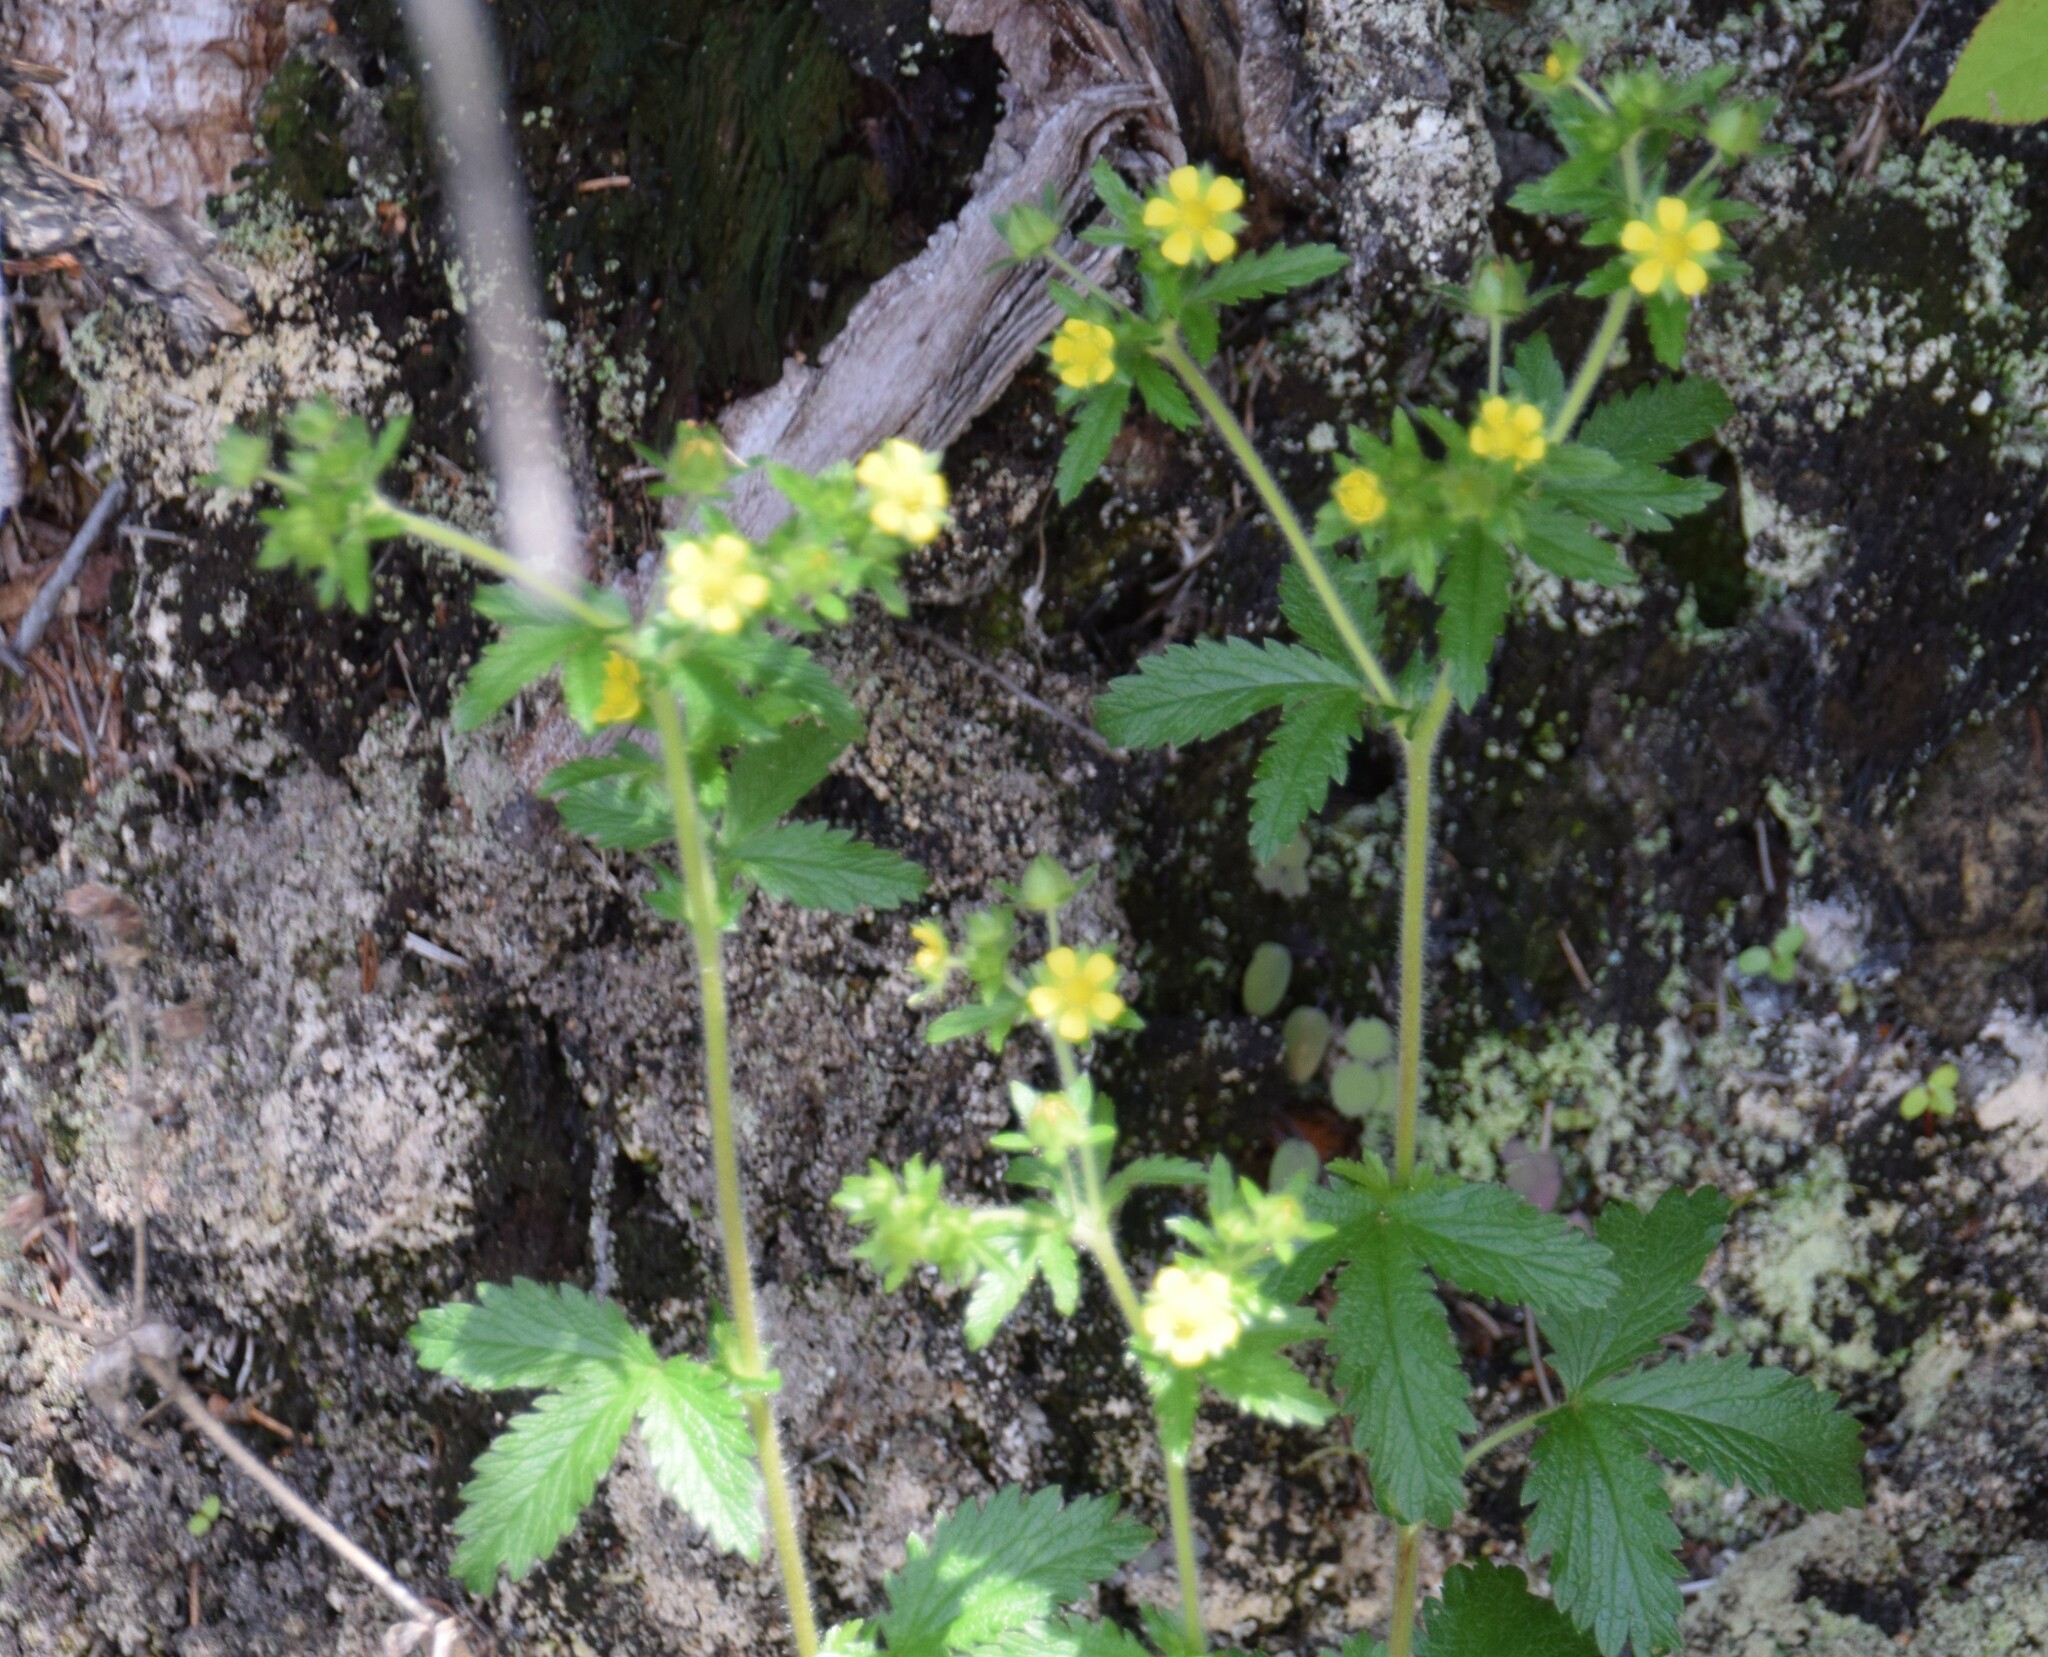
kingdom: Plantae
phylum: Tracheophyta
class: Magnoliopsida
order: Rosales
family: Rosaceae
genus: Potentilla
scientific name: Potentilla norvegica
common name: Ternate-leaved cinquefoil
